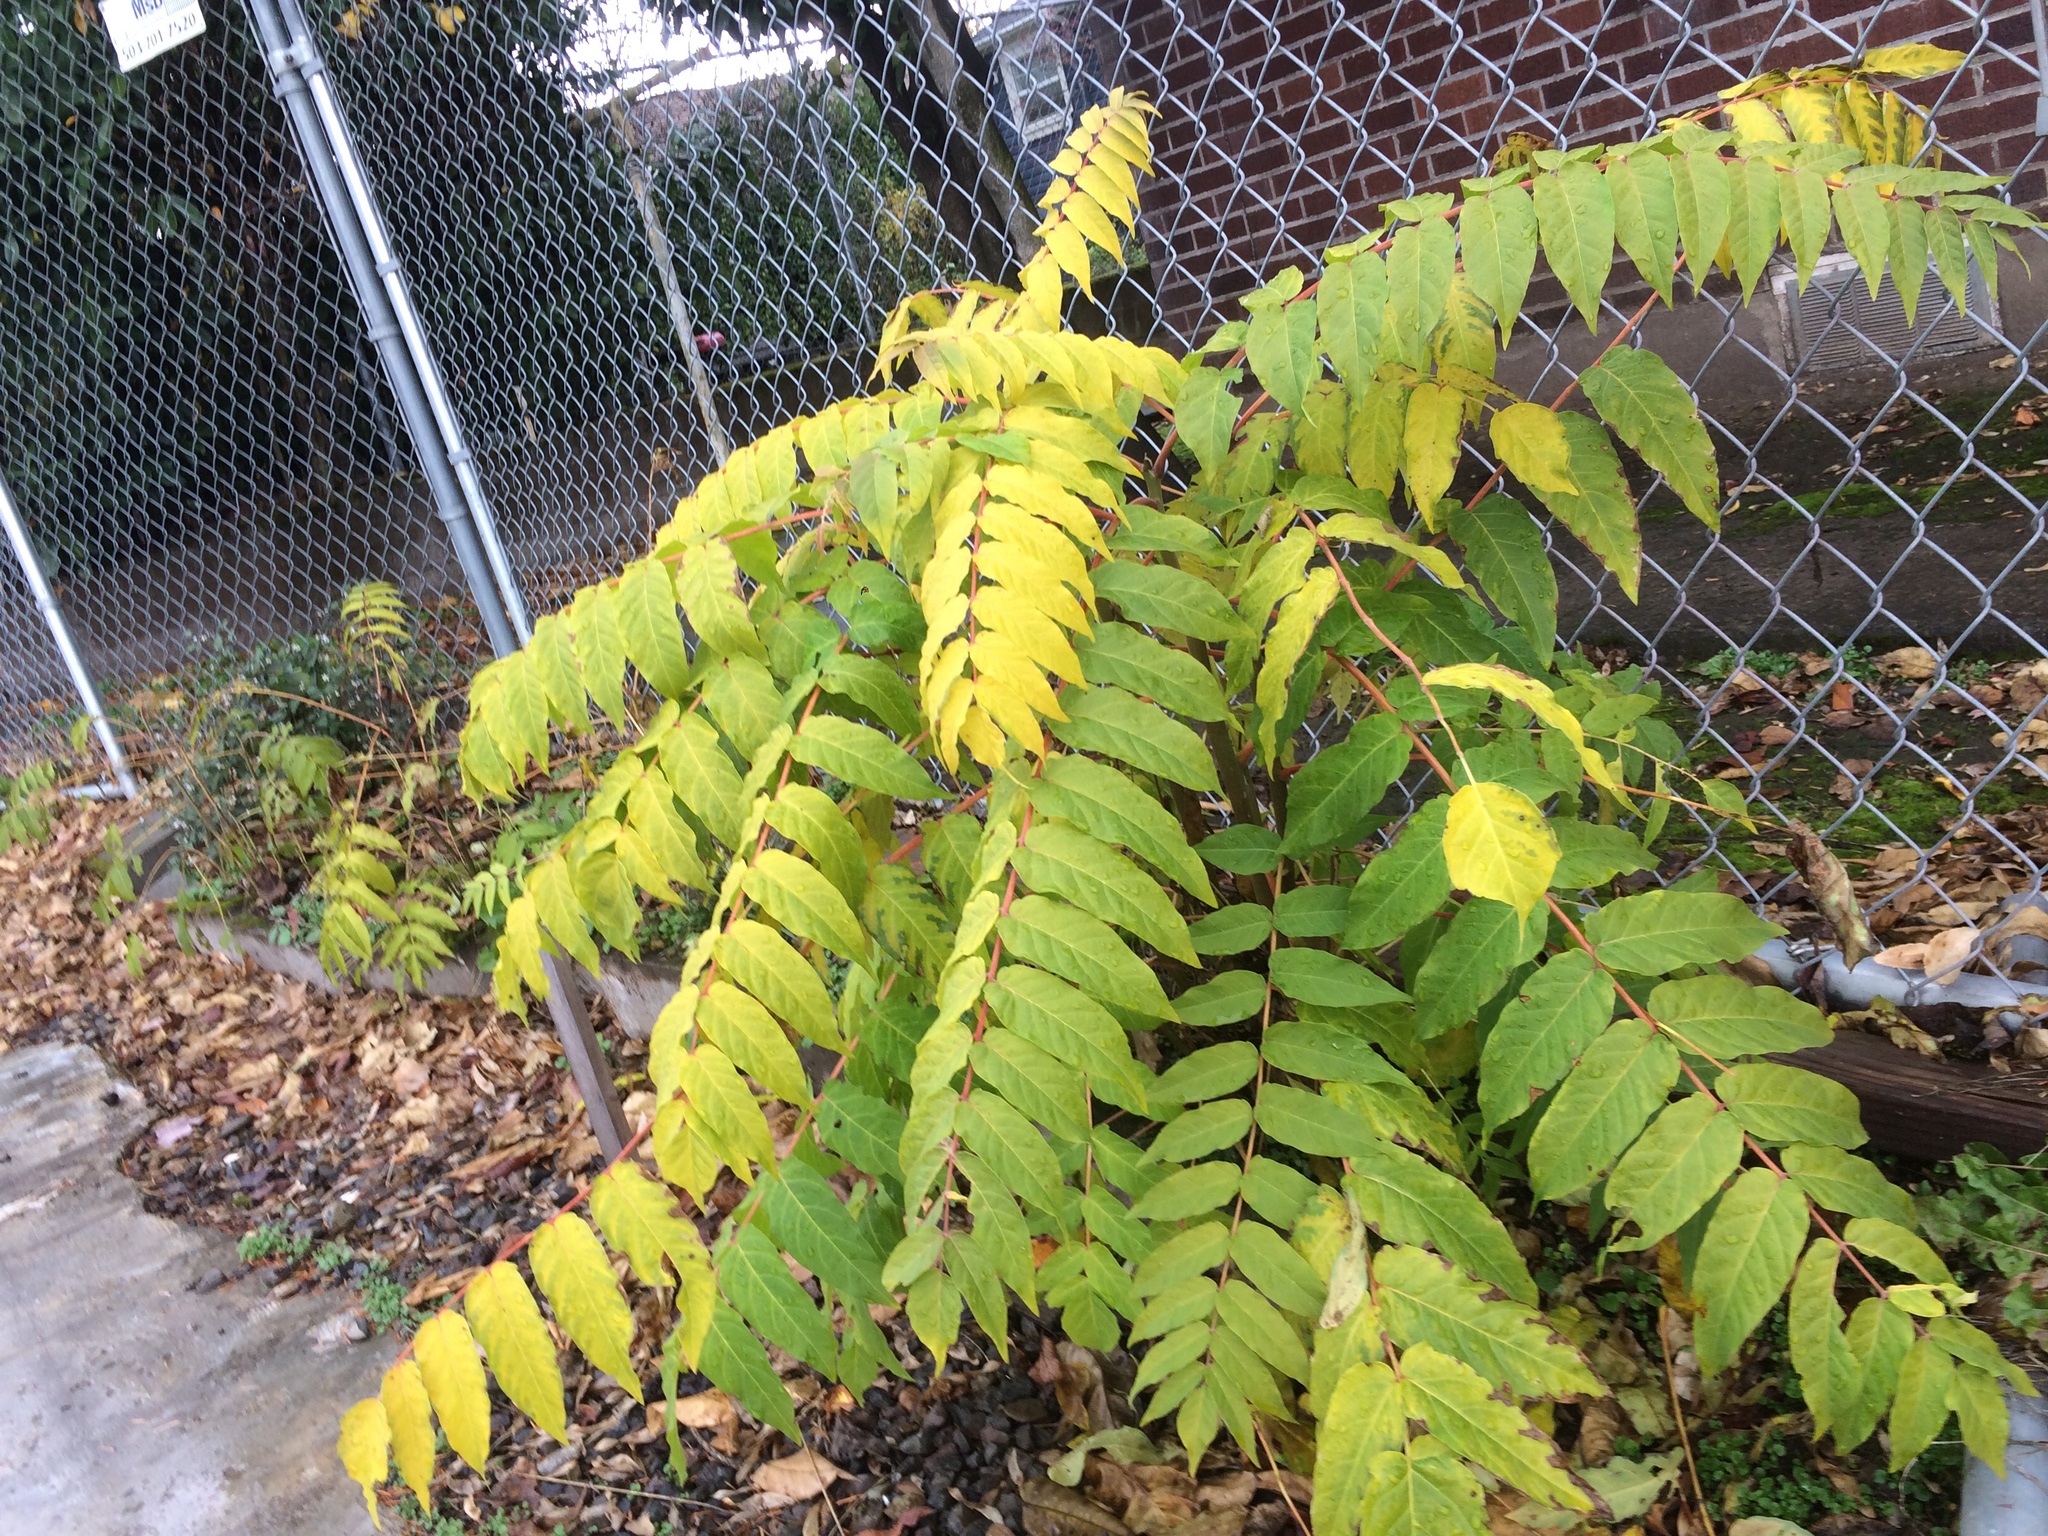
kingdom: Plantae
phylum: Tracheophyta
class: Magnoliopsida
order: Sapindales
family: Simaroubaceae
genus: Ailanthus
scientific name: Ailanthus altissima
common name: Tree-of-heaven
